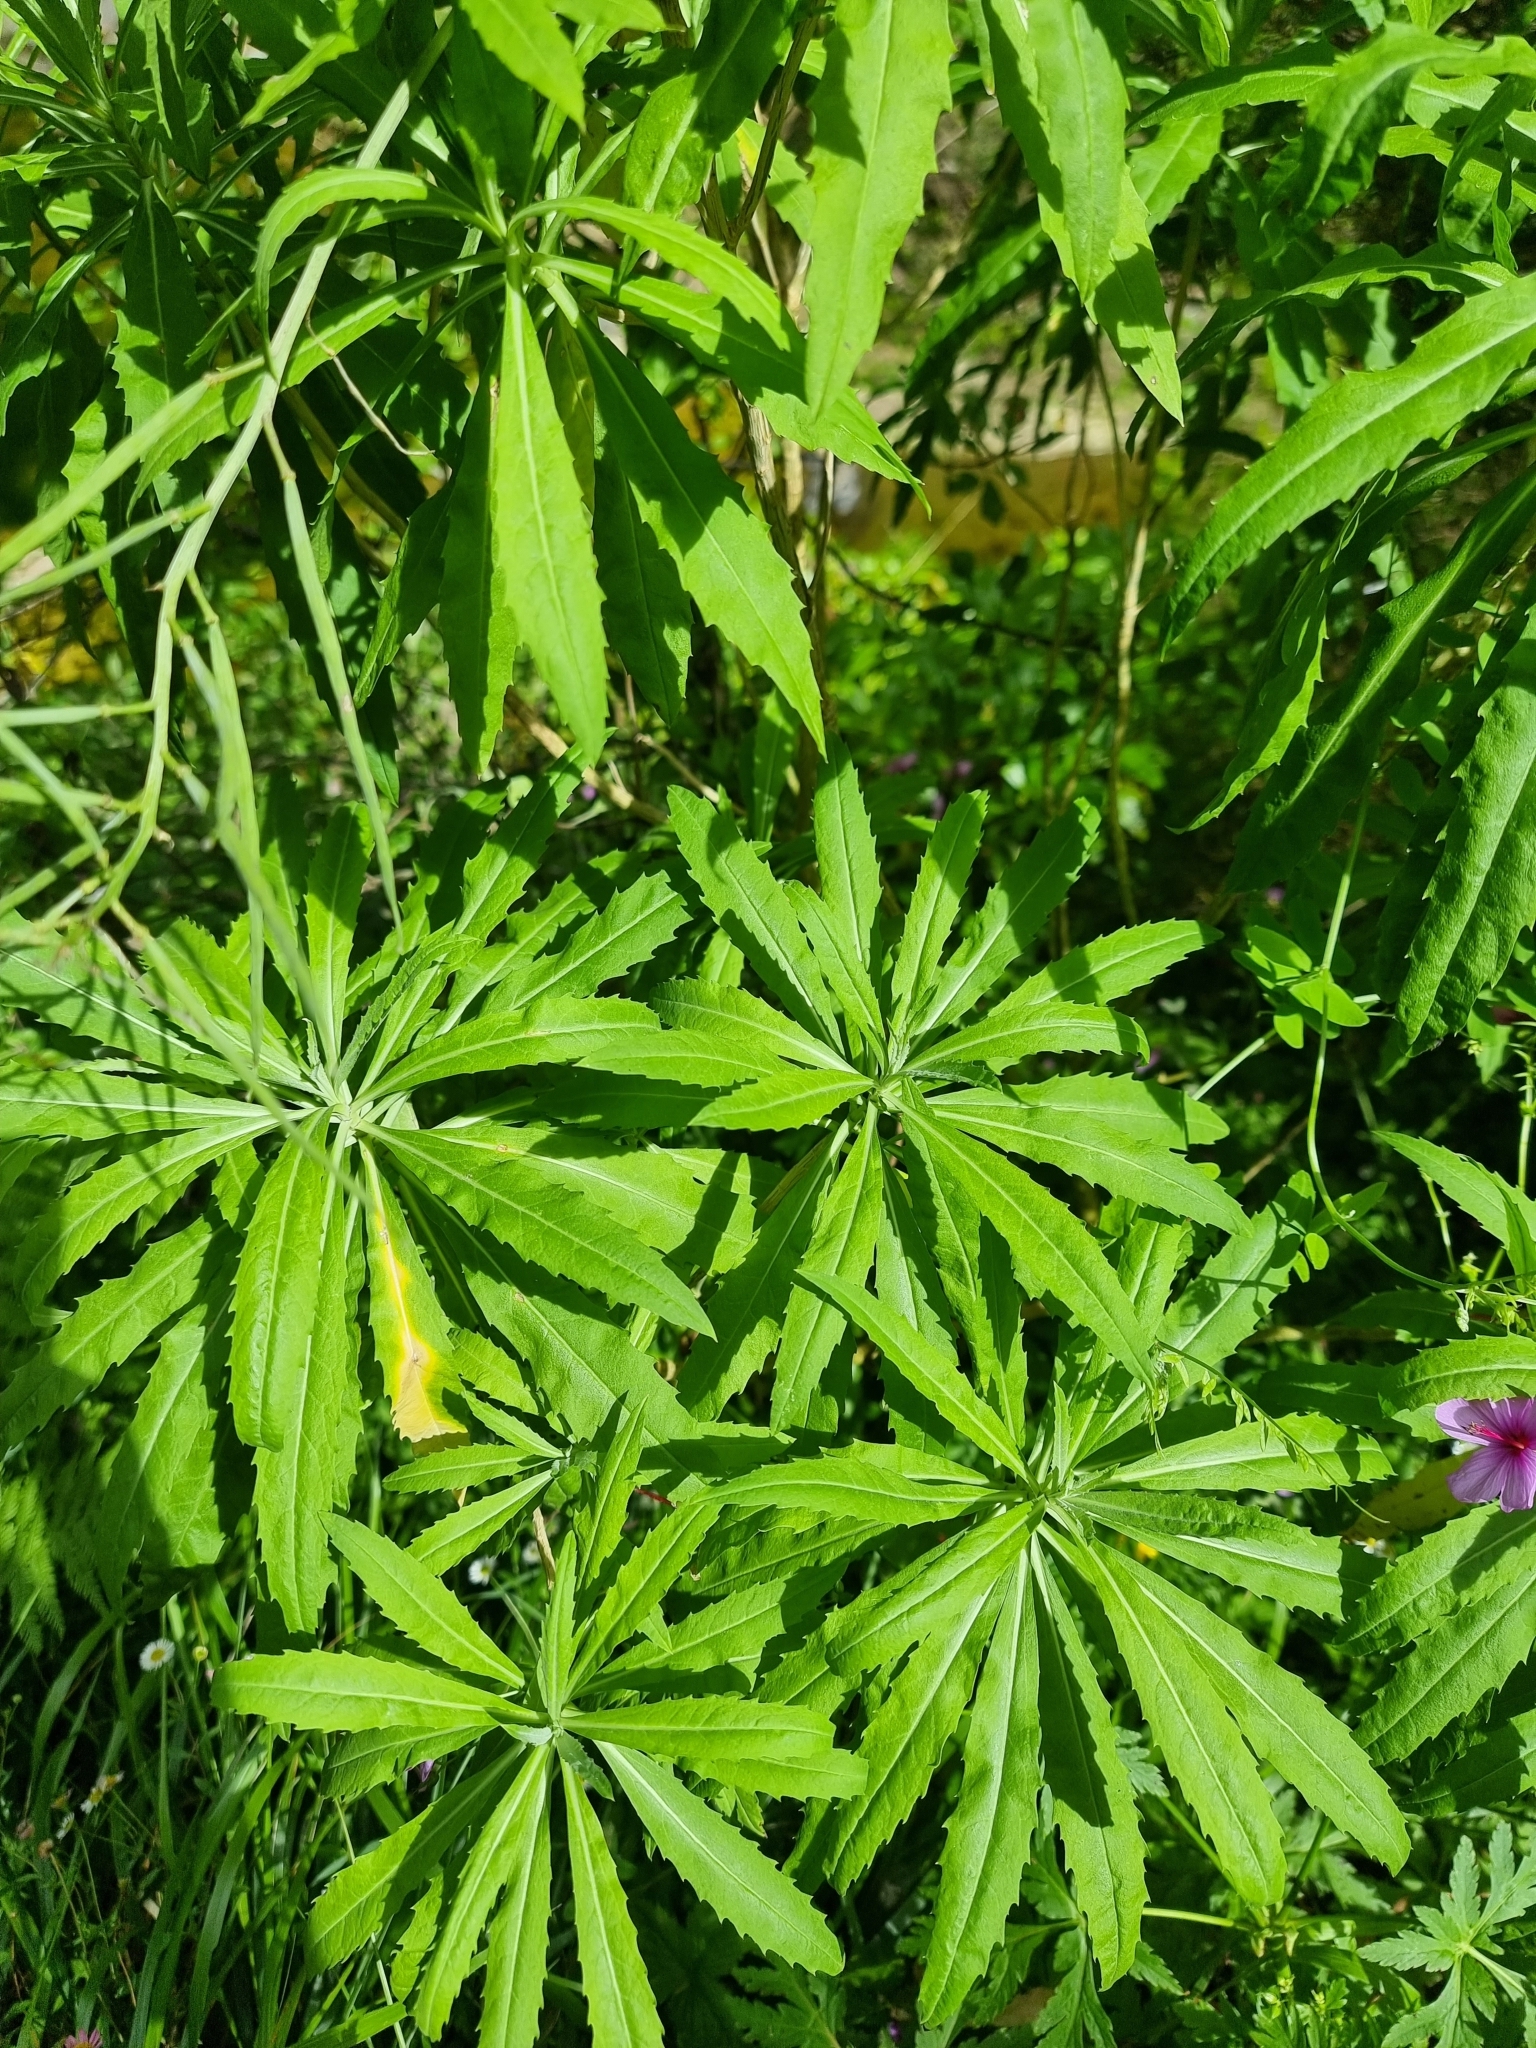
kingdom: Plantae
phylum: Tracheophyta
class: Magnoliopsida
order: Brassicales
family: Brassicaceae
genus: Erysimum
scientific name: Erysimum bicolor
